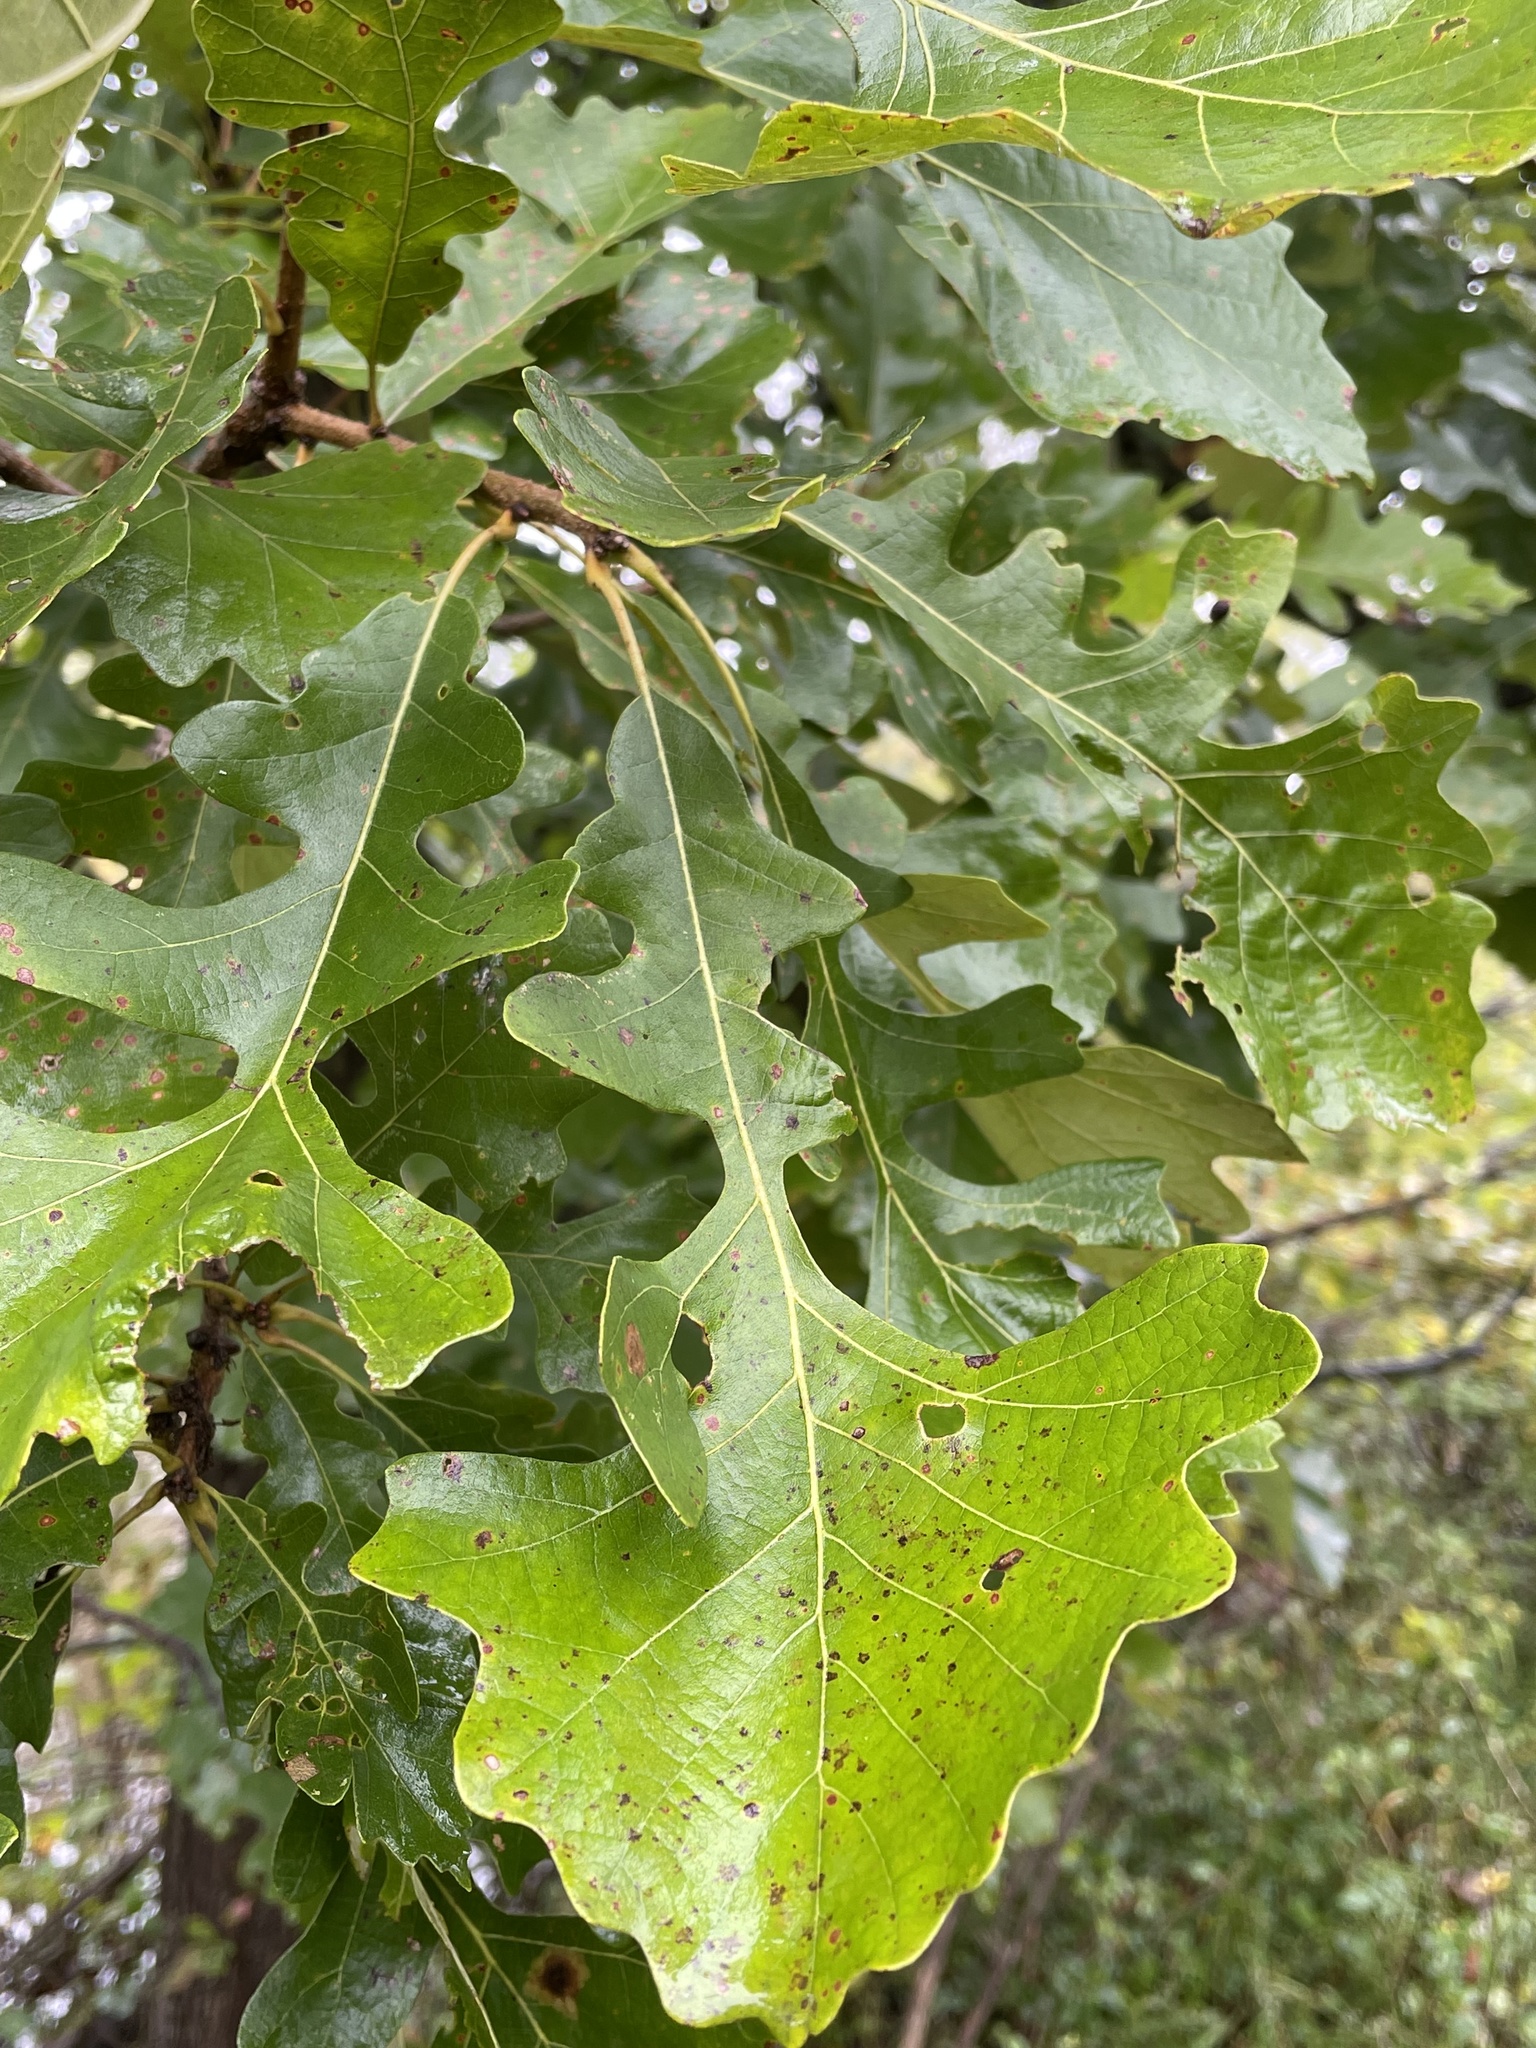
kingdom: Plantae
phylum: Tracheophyta
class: Magnoliopsida
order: Fagales
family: Fagaceae
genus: Quercus
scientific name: Quercus macrocarpa
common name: Bur oak
